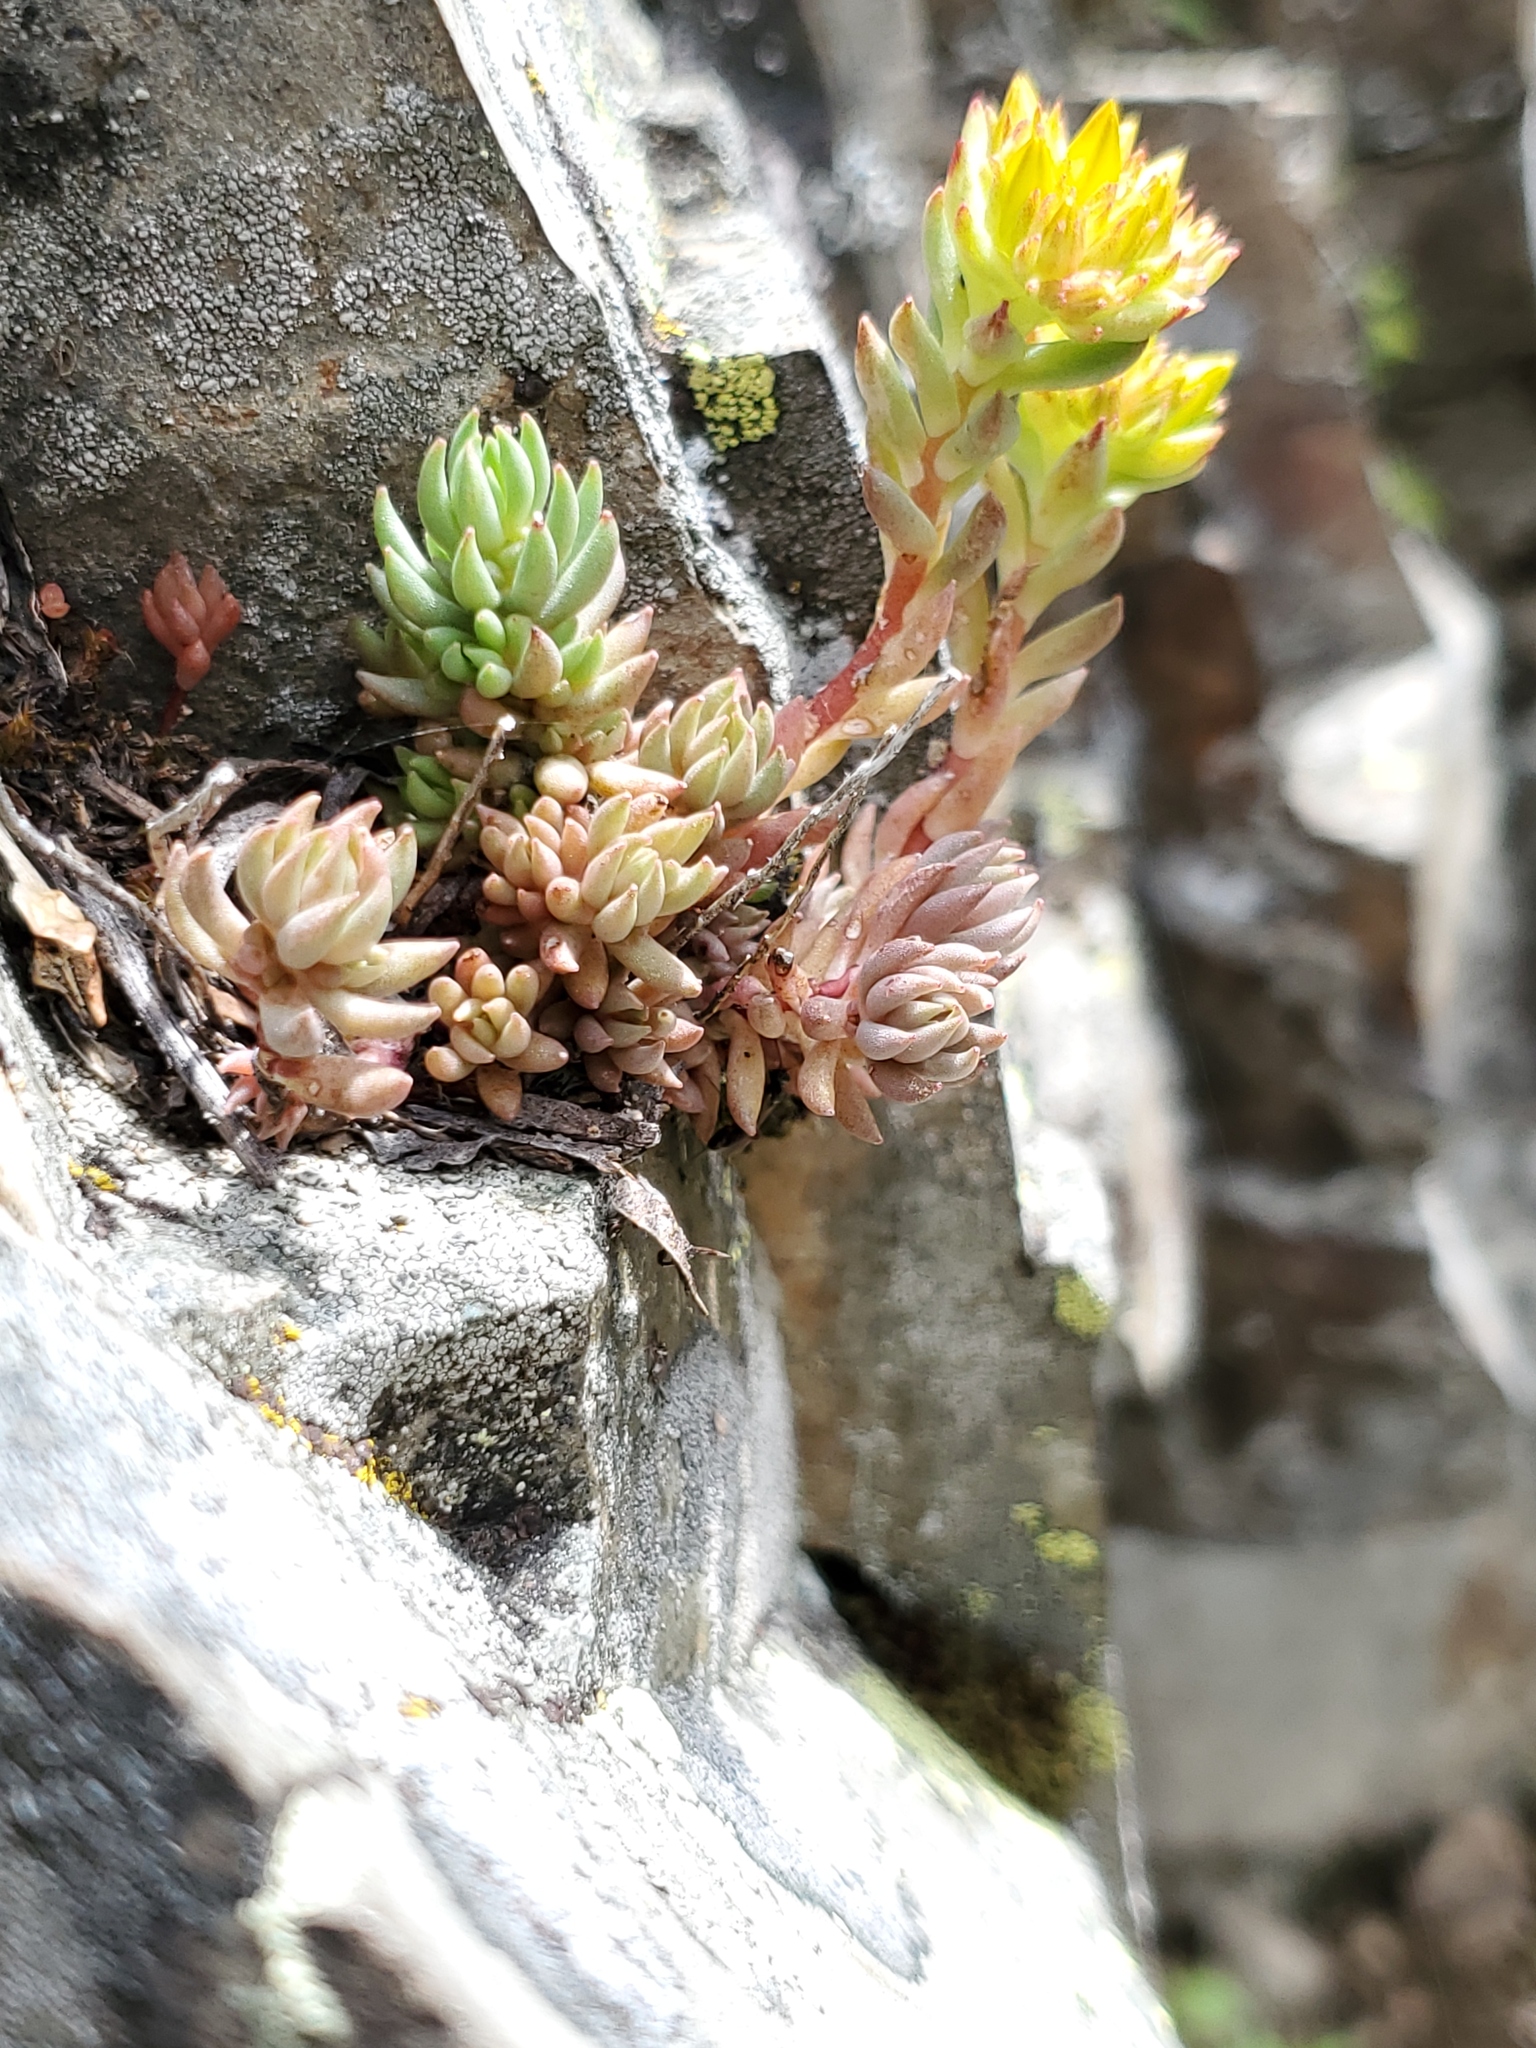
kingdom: Plantae
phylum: Tracheophyta
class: Magnoliopsida
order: Saxifragales
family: Crassulaceae
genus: Sedum
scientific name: Sedum lanceolatum
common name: Common stonecrop
